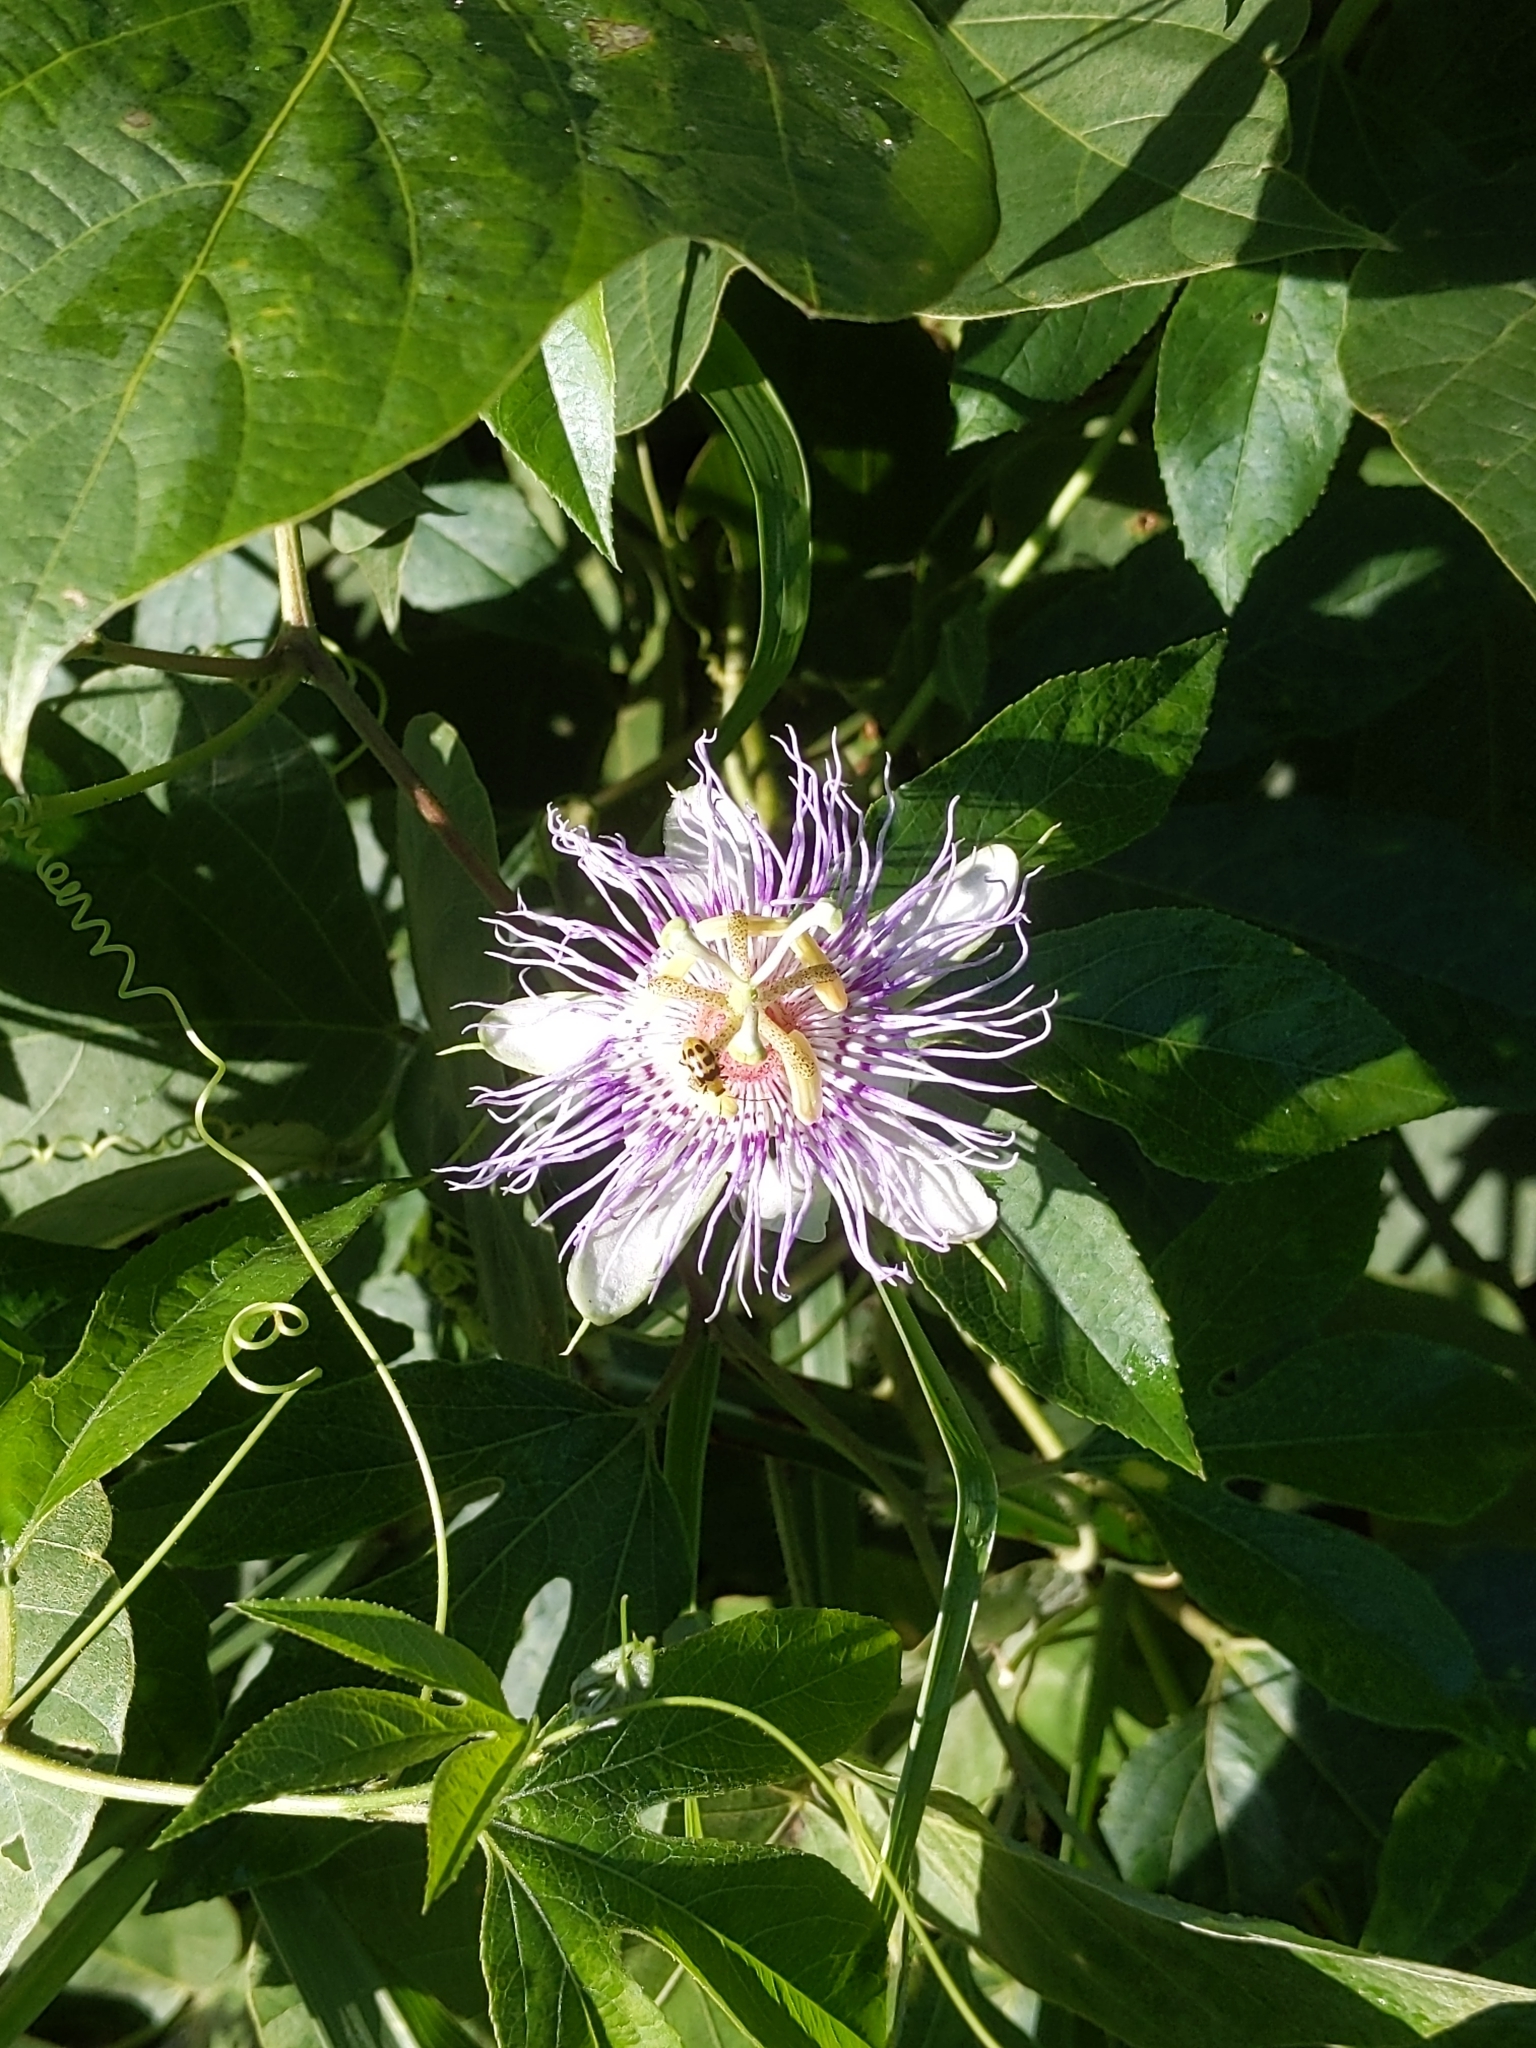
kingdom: Plantae
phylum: Tracheophyta
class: Magnoliopsida
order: Malpighiales
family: Passifloraceae
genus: Passiflora
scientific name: Passiflora incarnata
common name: Apricot-vine
